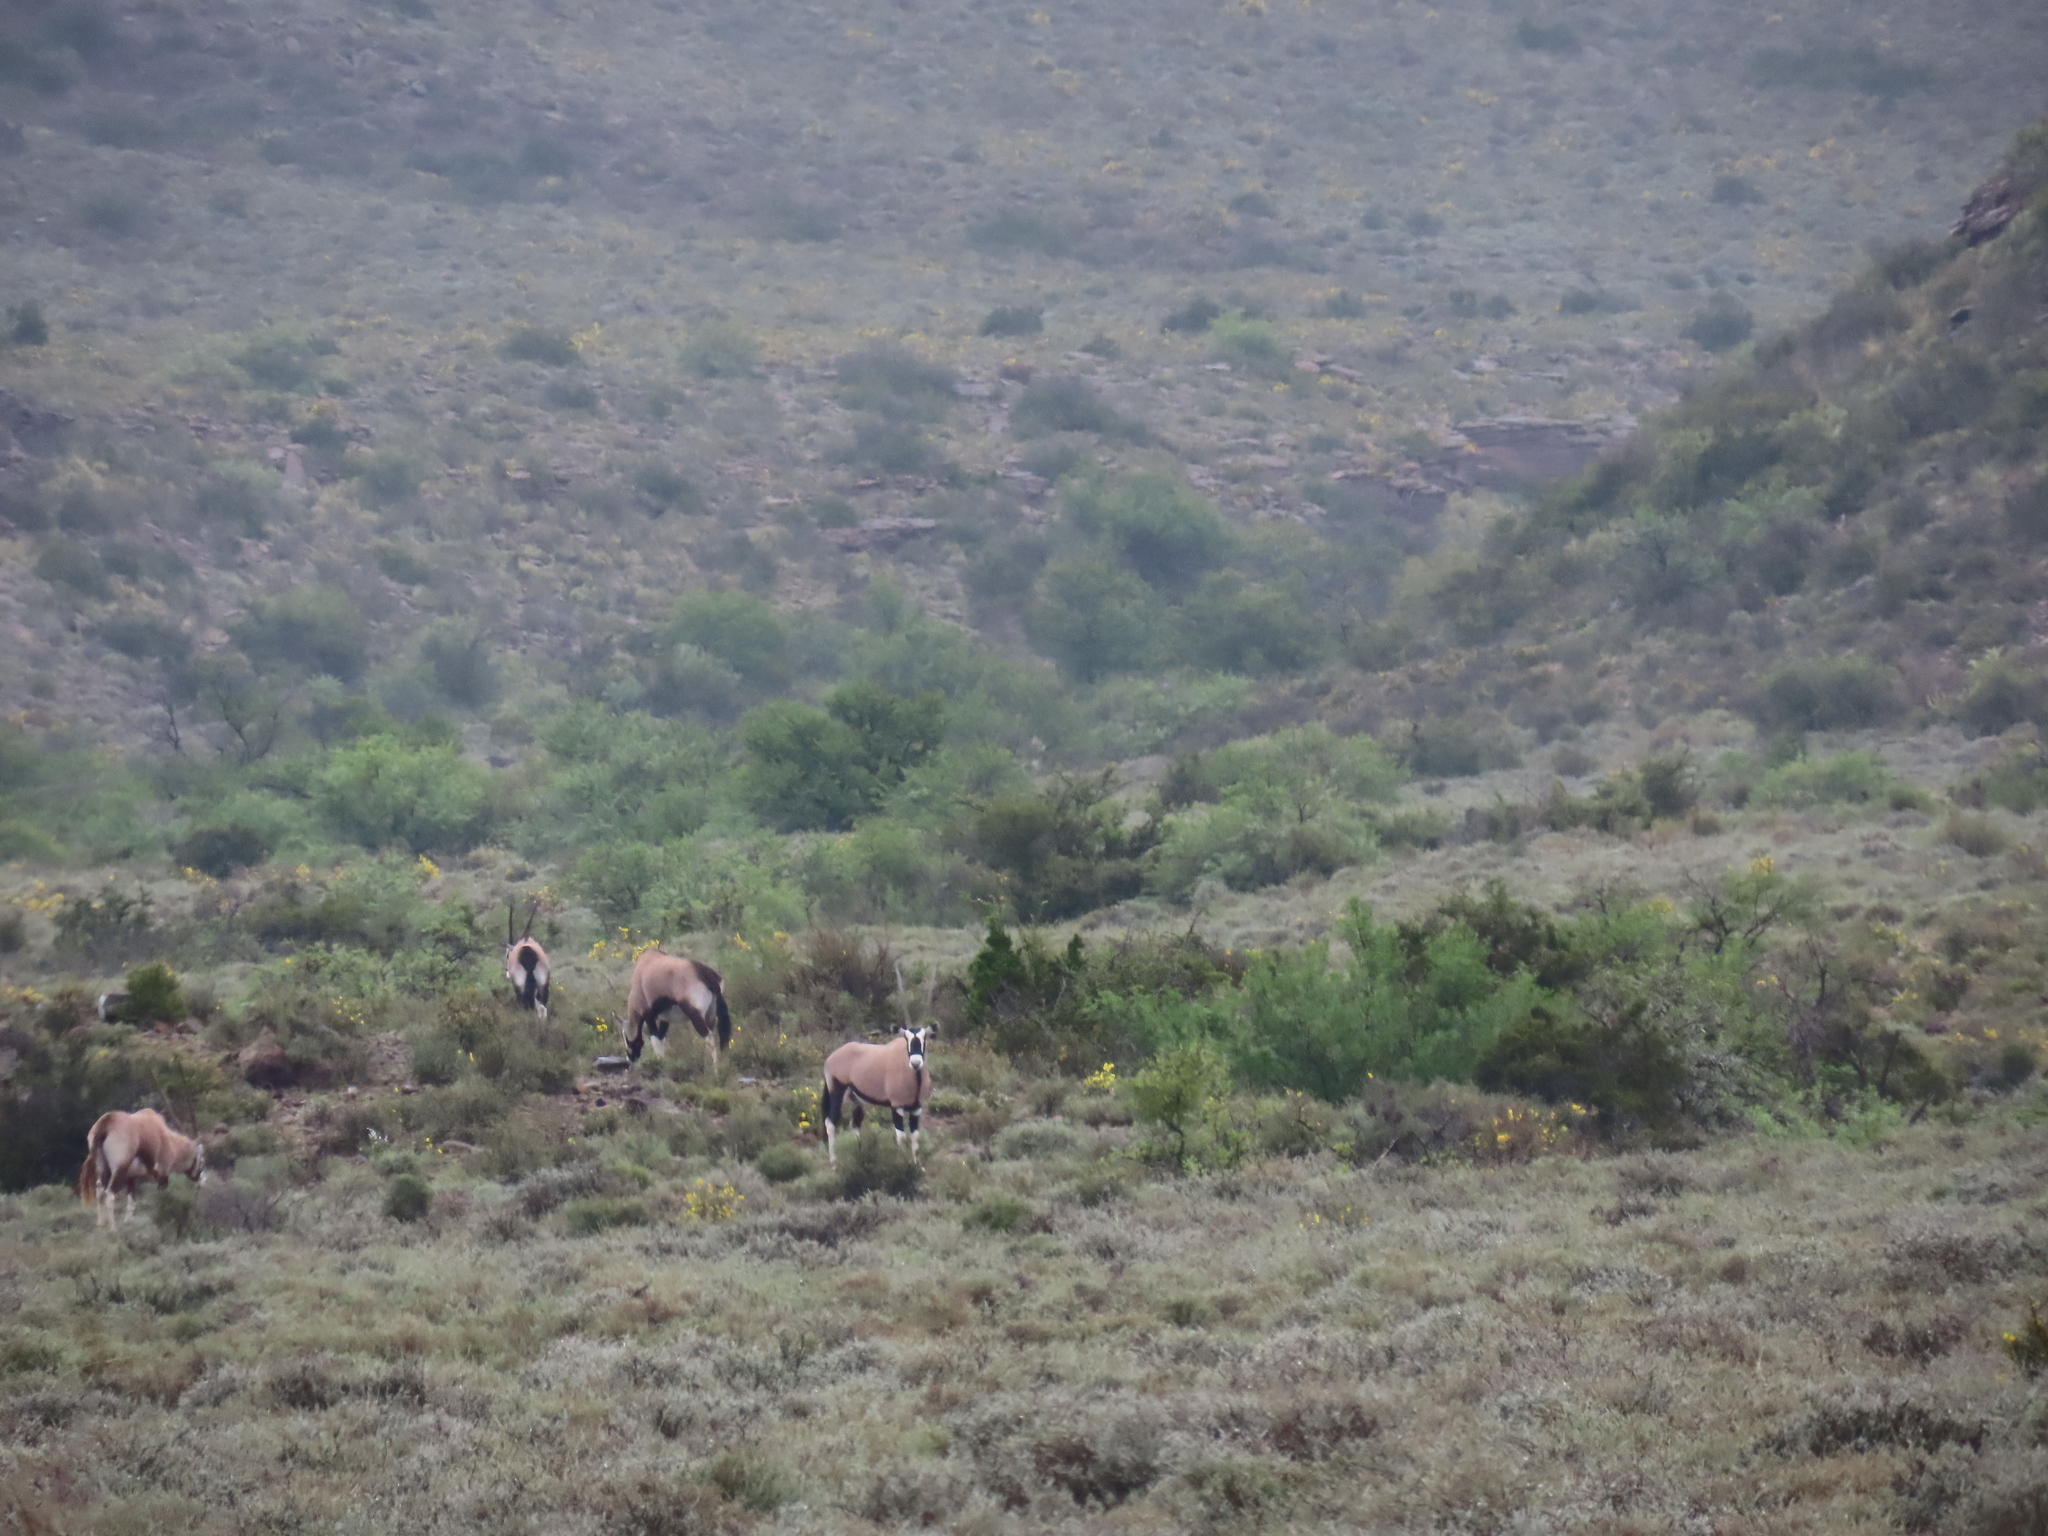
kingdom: Animalia
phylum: Chordata
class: Mammalia
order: Artiodactyla
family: Bovidae
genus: Oryx
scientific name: Oryx gazella
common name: Gemsbok
